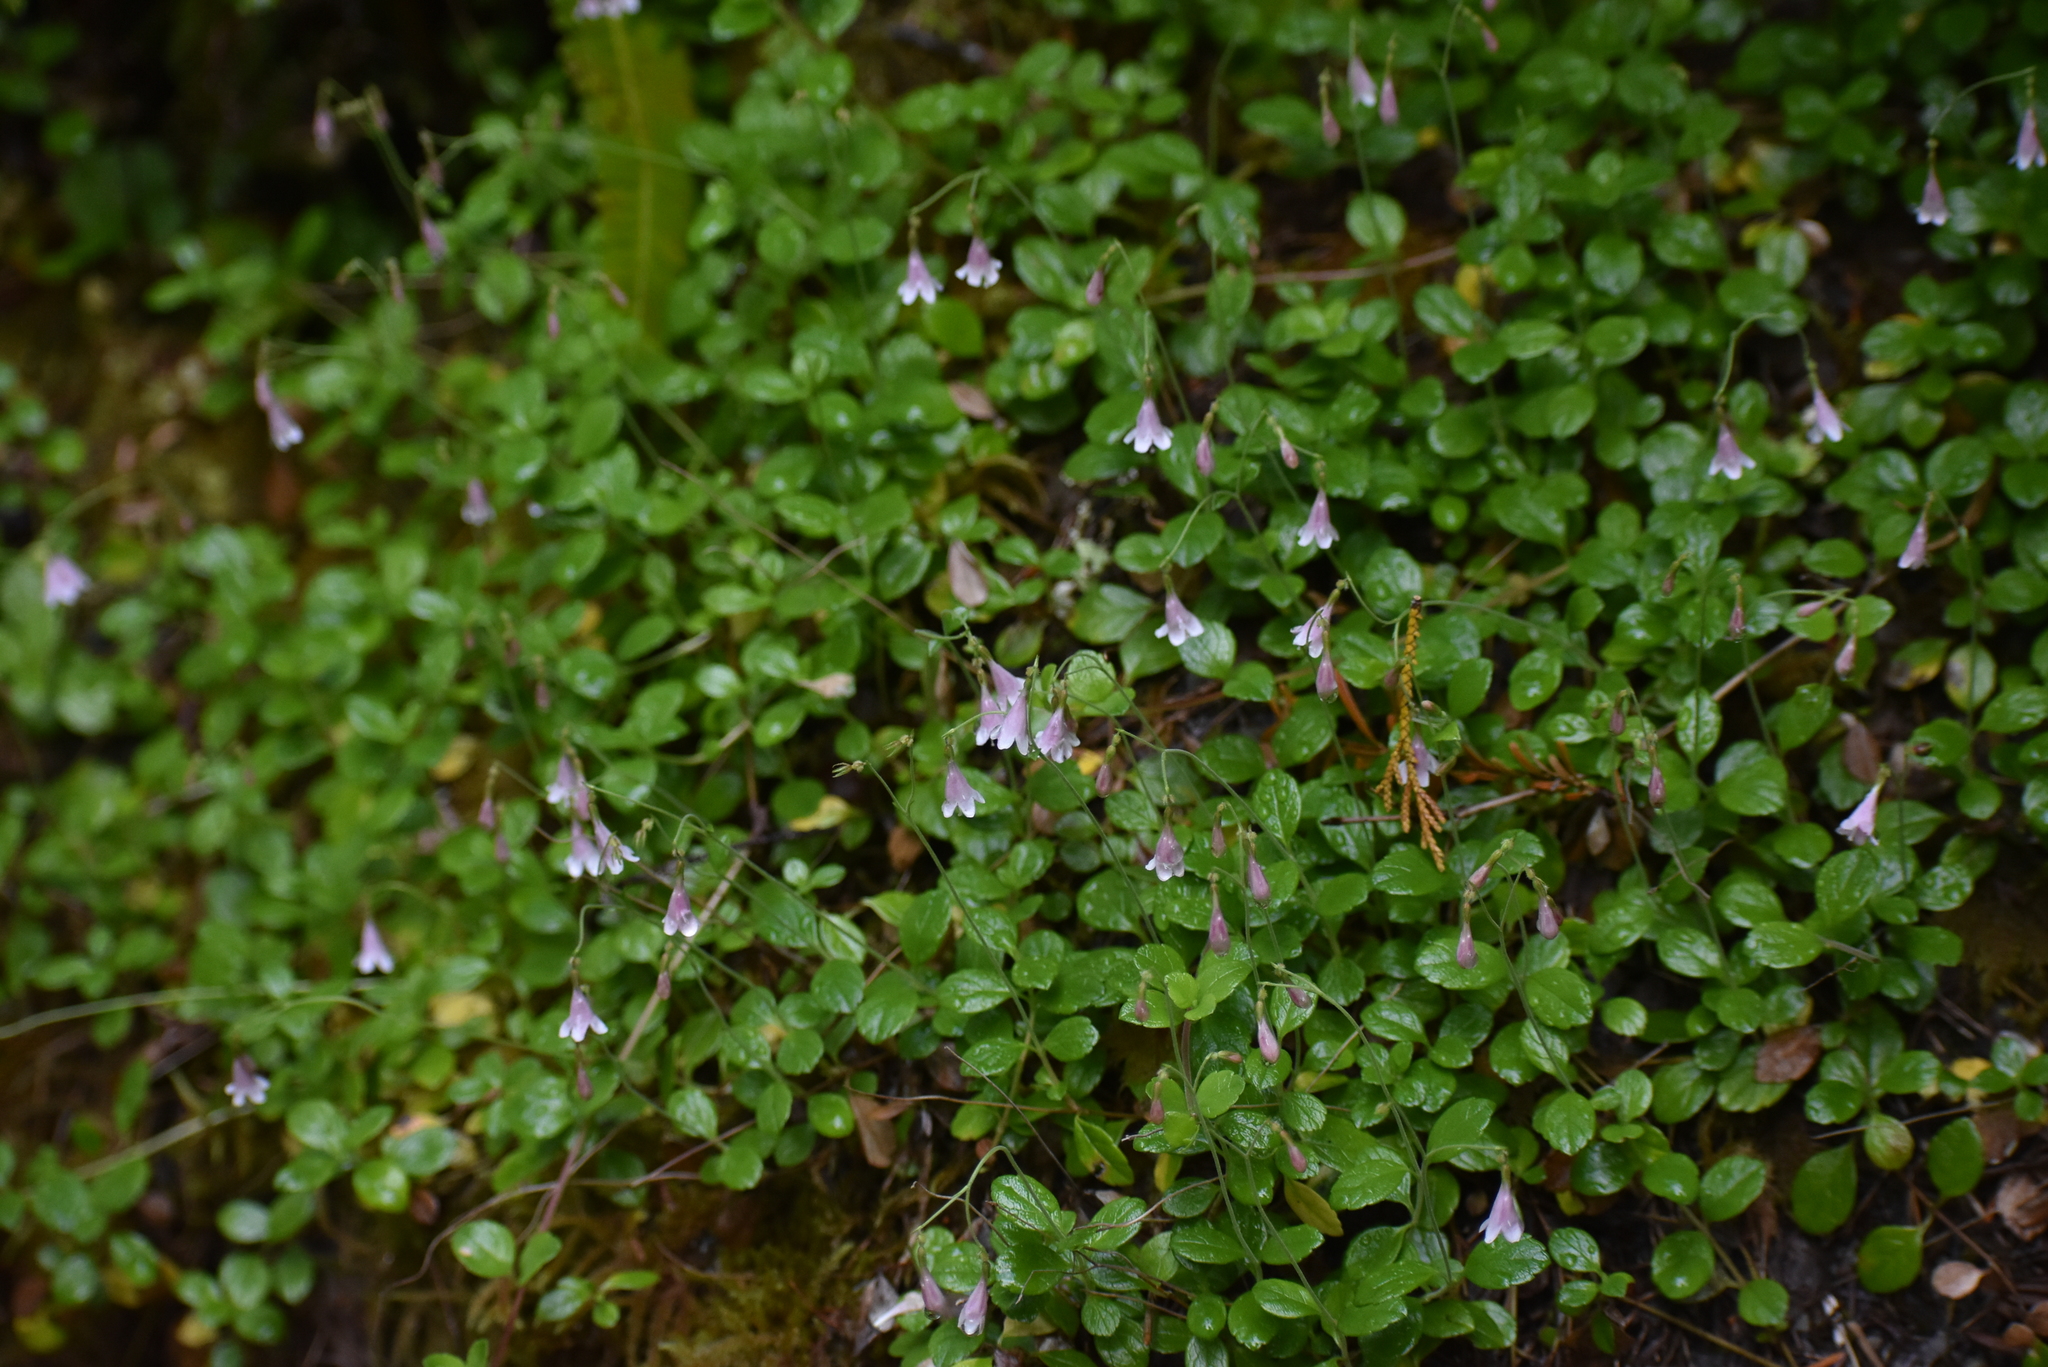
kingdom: Plantae
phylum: Tracheophyta
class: Magnoliopsida
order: Dipsacales
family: Caprifoliaceae
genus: Linnaea
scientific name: Linnaea borealis
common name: Twinflower
